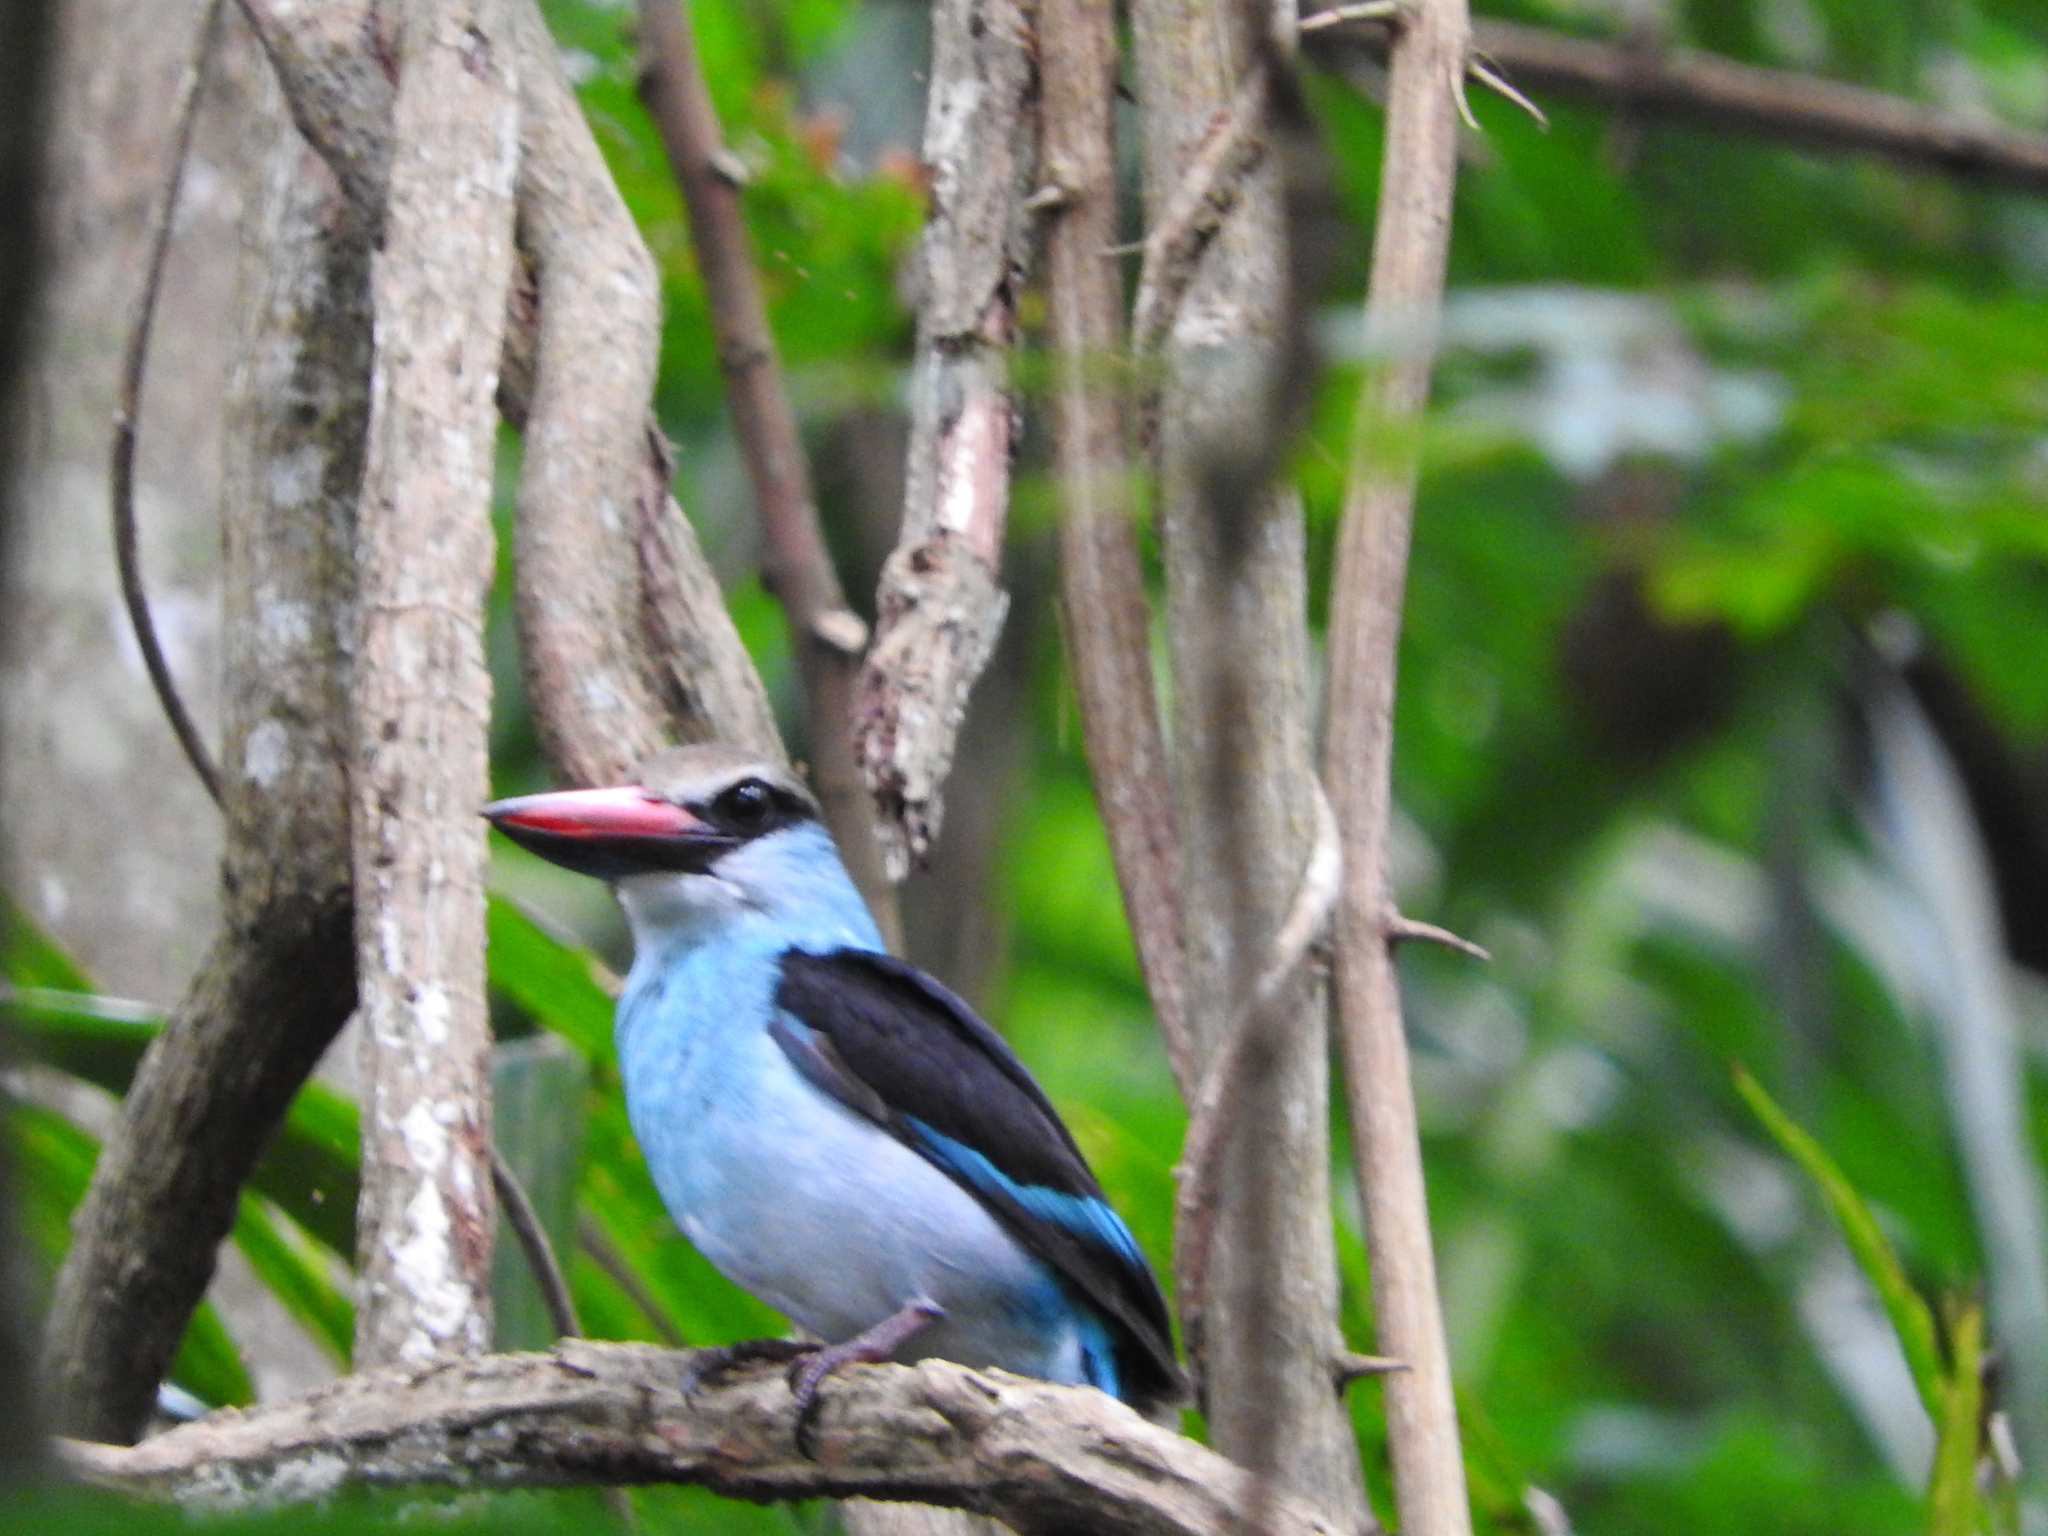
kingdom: Animalia
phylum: Chordata
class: Aves
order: Coraciiformes
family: Alcedinidae
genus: Halcyon
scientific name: Halcyon malimbica
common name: Blue-breasted kingfisher
